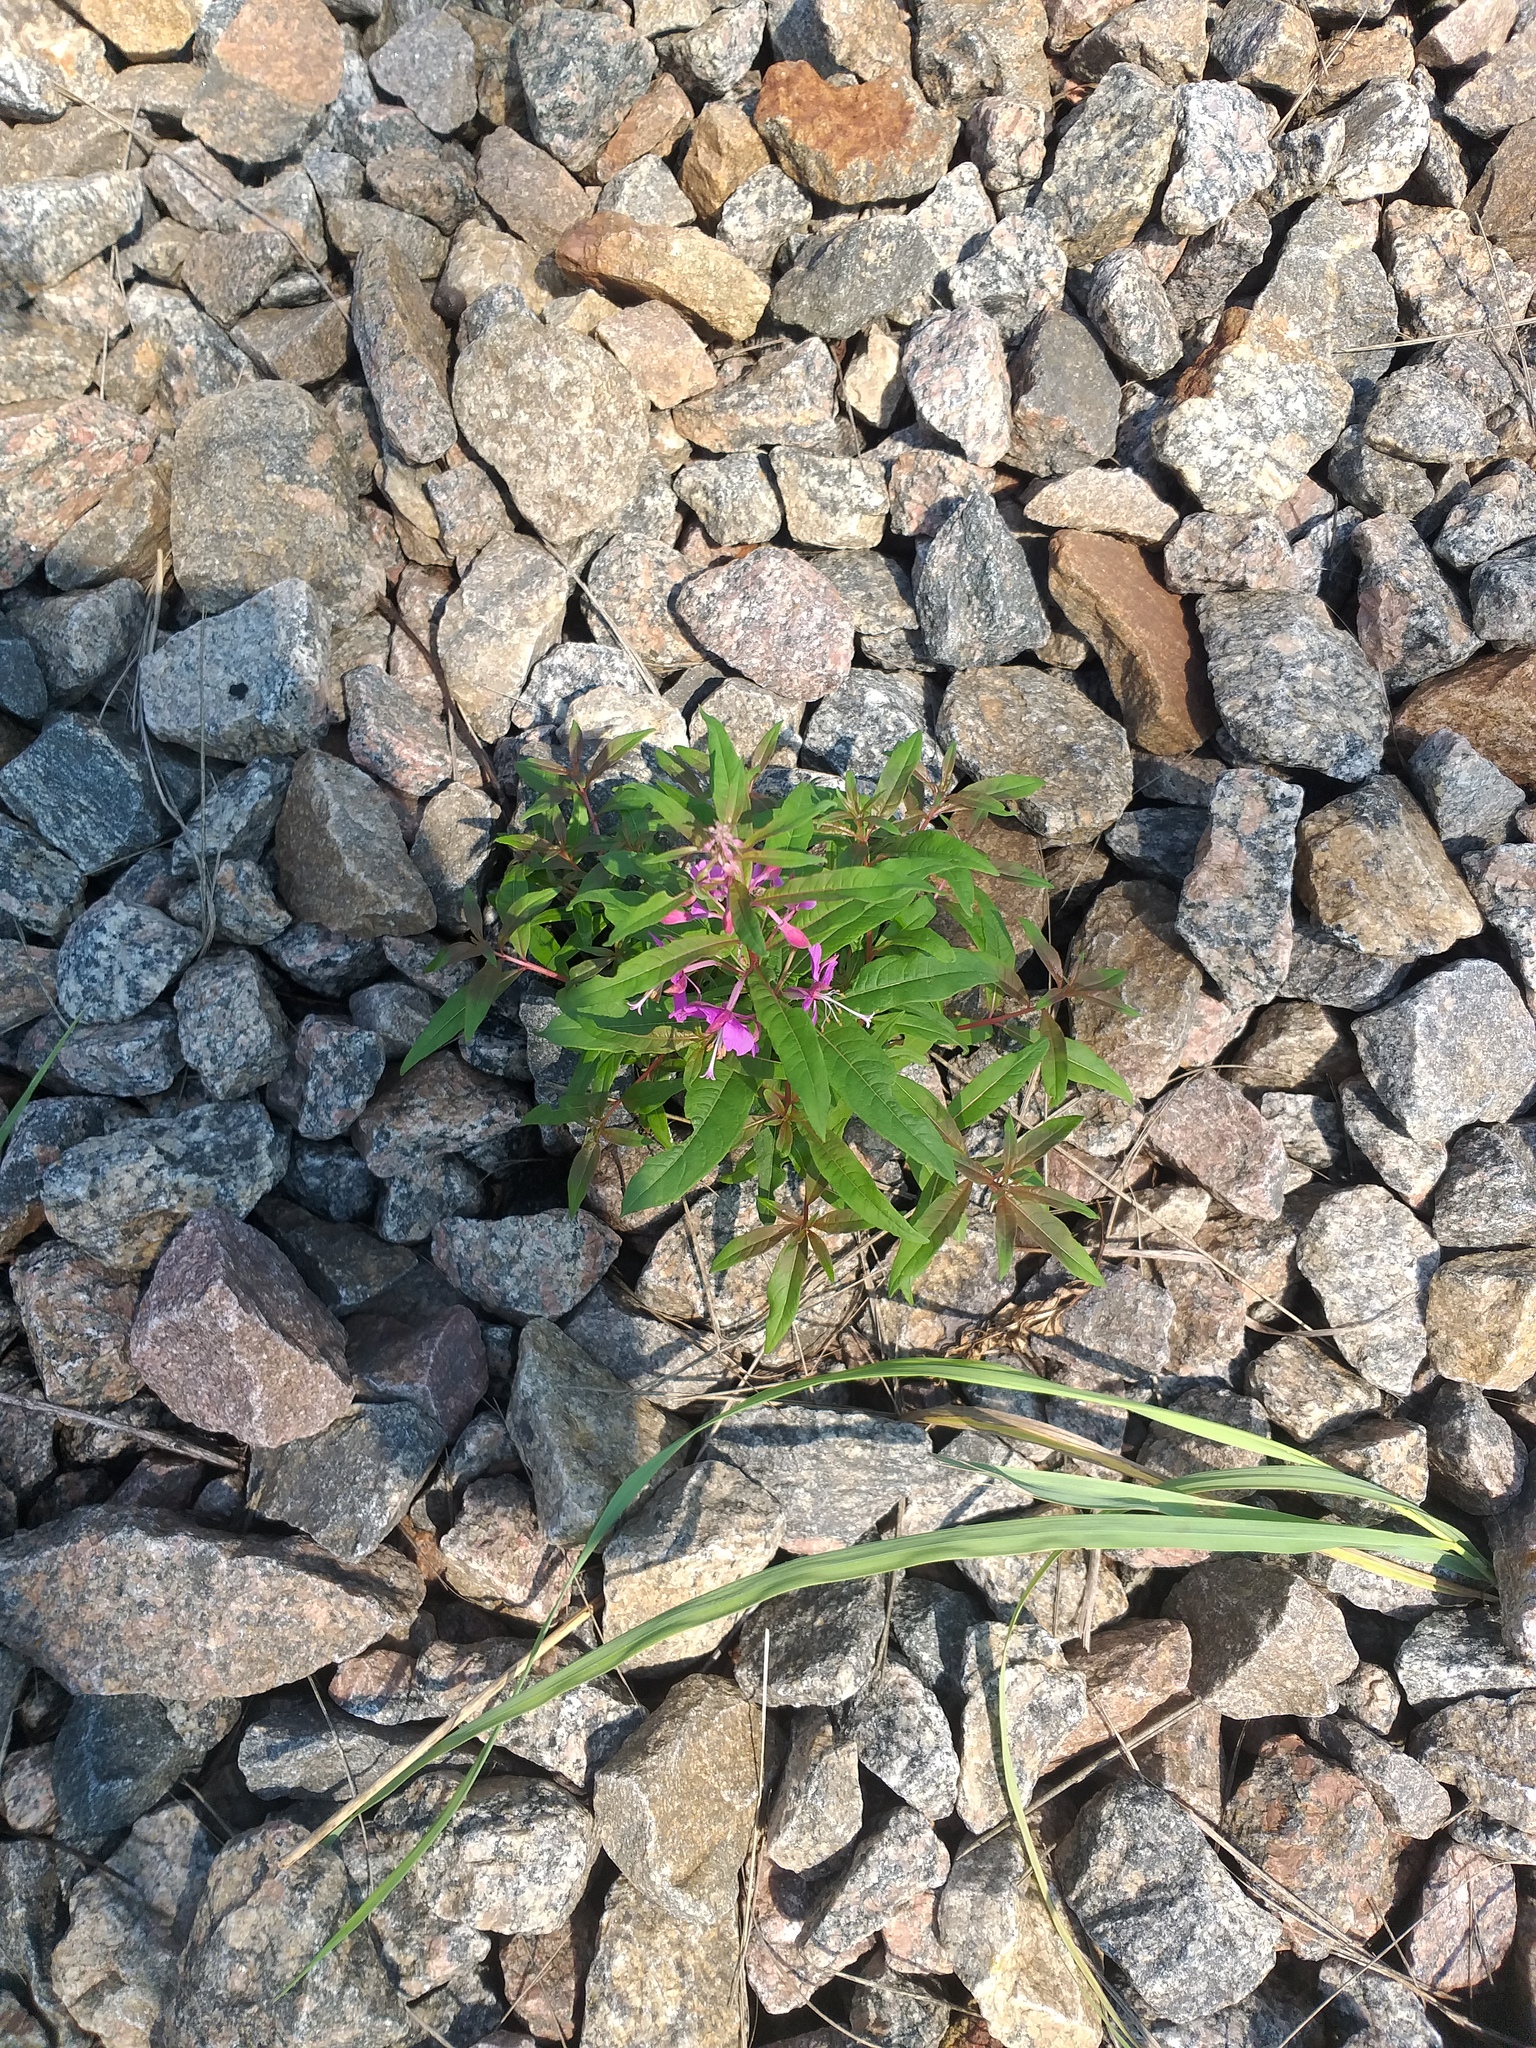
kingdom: Plantae
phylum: Tracheophyta
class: Magnoliopsida
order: Myrtales
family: Onagraceae
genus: Chamaenerion
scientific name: Chamaenerion angustifolium
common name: Fireweed
